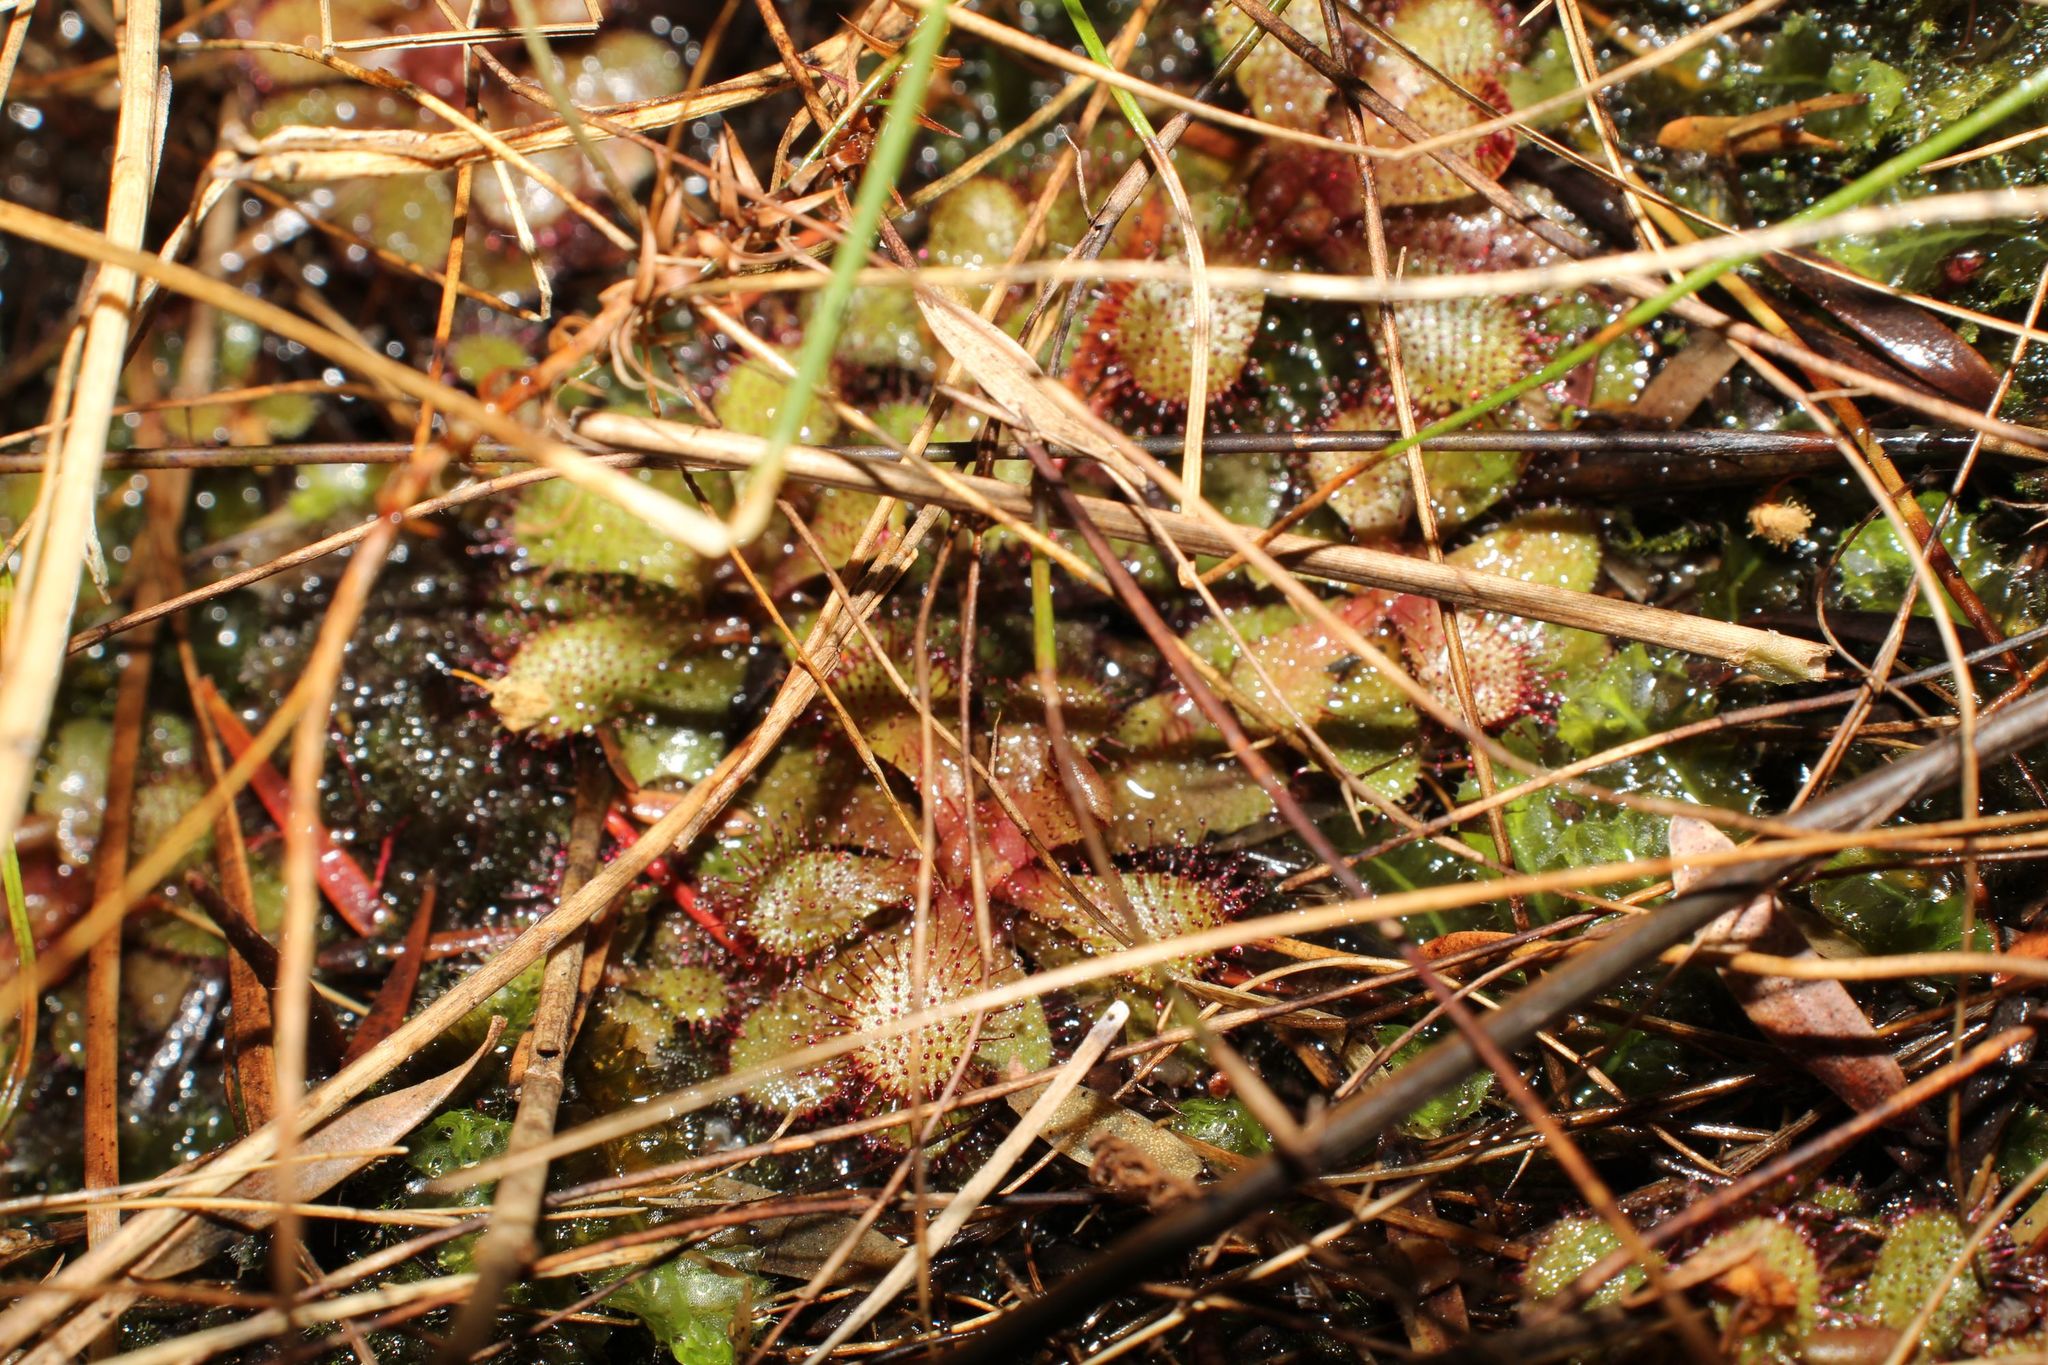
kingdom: Plantae
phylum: Tracheophyta
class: Magnoliopsida
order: Caryophyllales
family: Droseraceae
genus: Drosera
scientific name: Drosera hamiltonii
